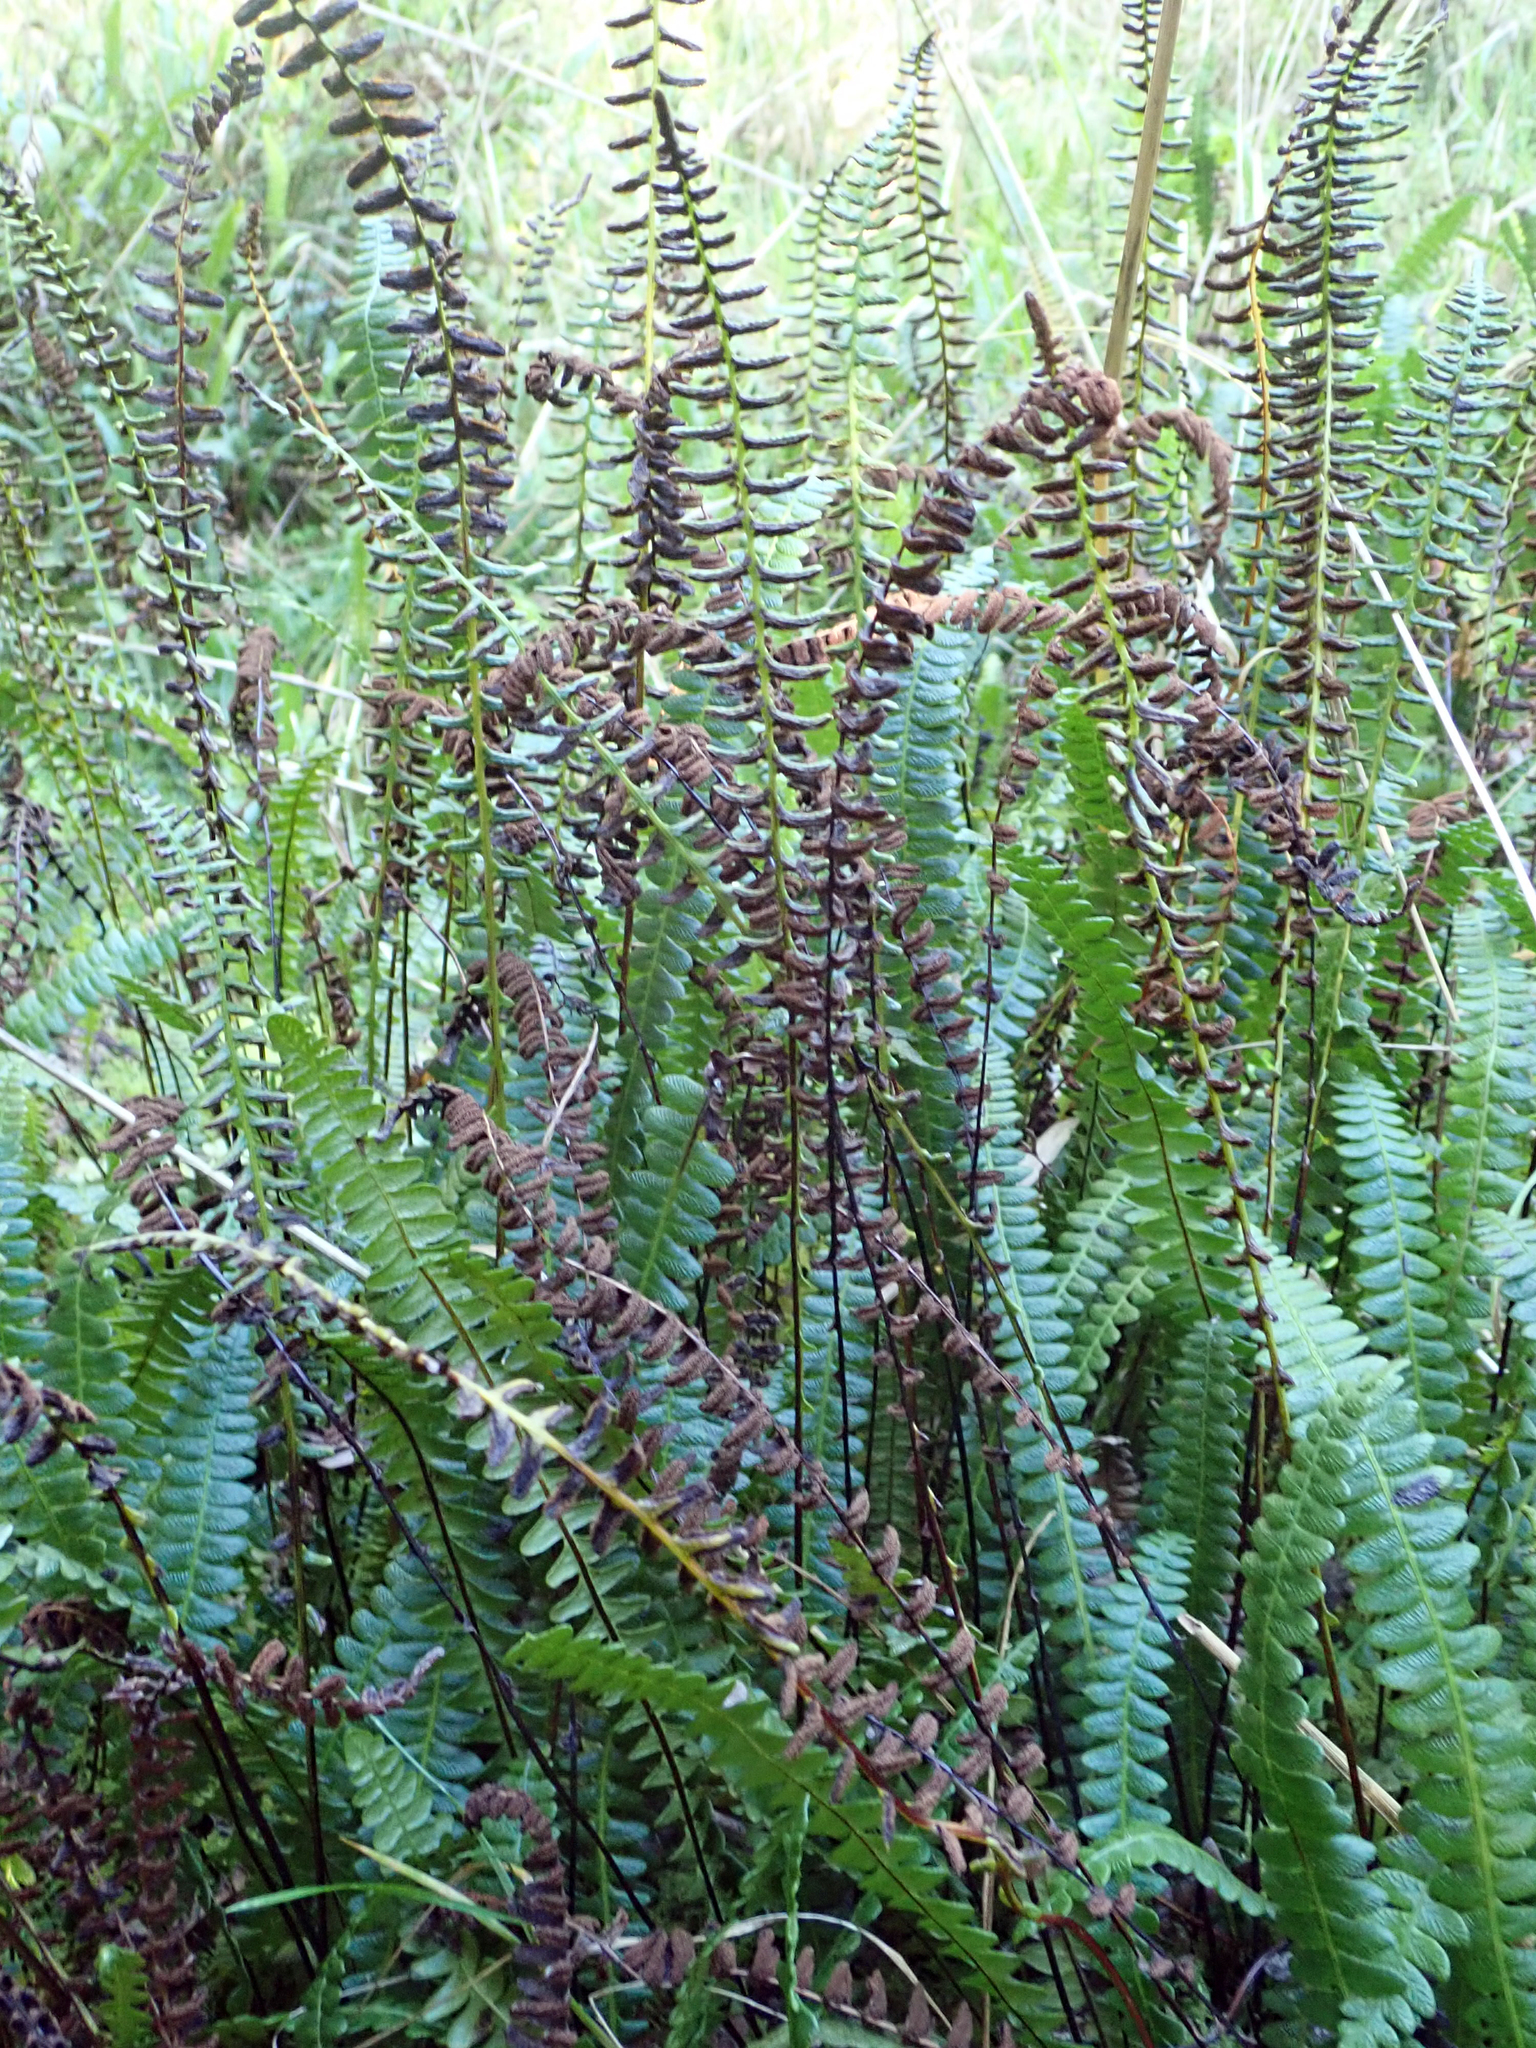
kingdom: Plantae
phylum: Tracheophyta
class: Polypodiopsida
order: Polypodiales
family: Blechnaceae
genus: Austroblechnum
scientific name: Austroblechnum penna-marina
